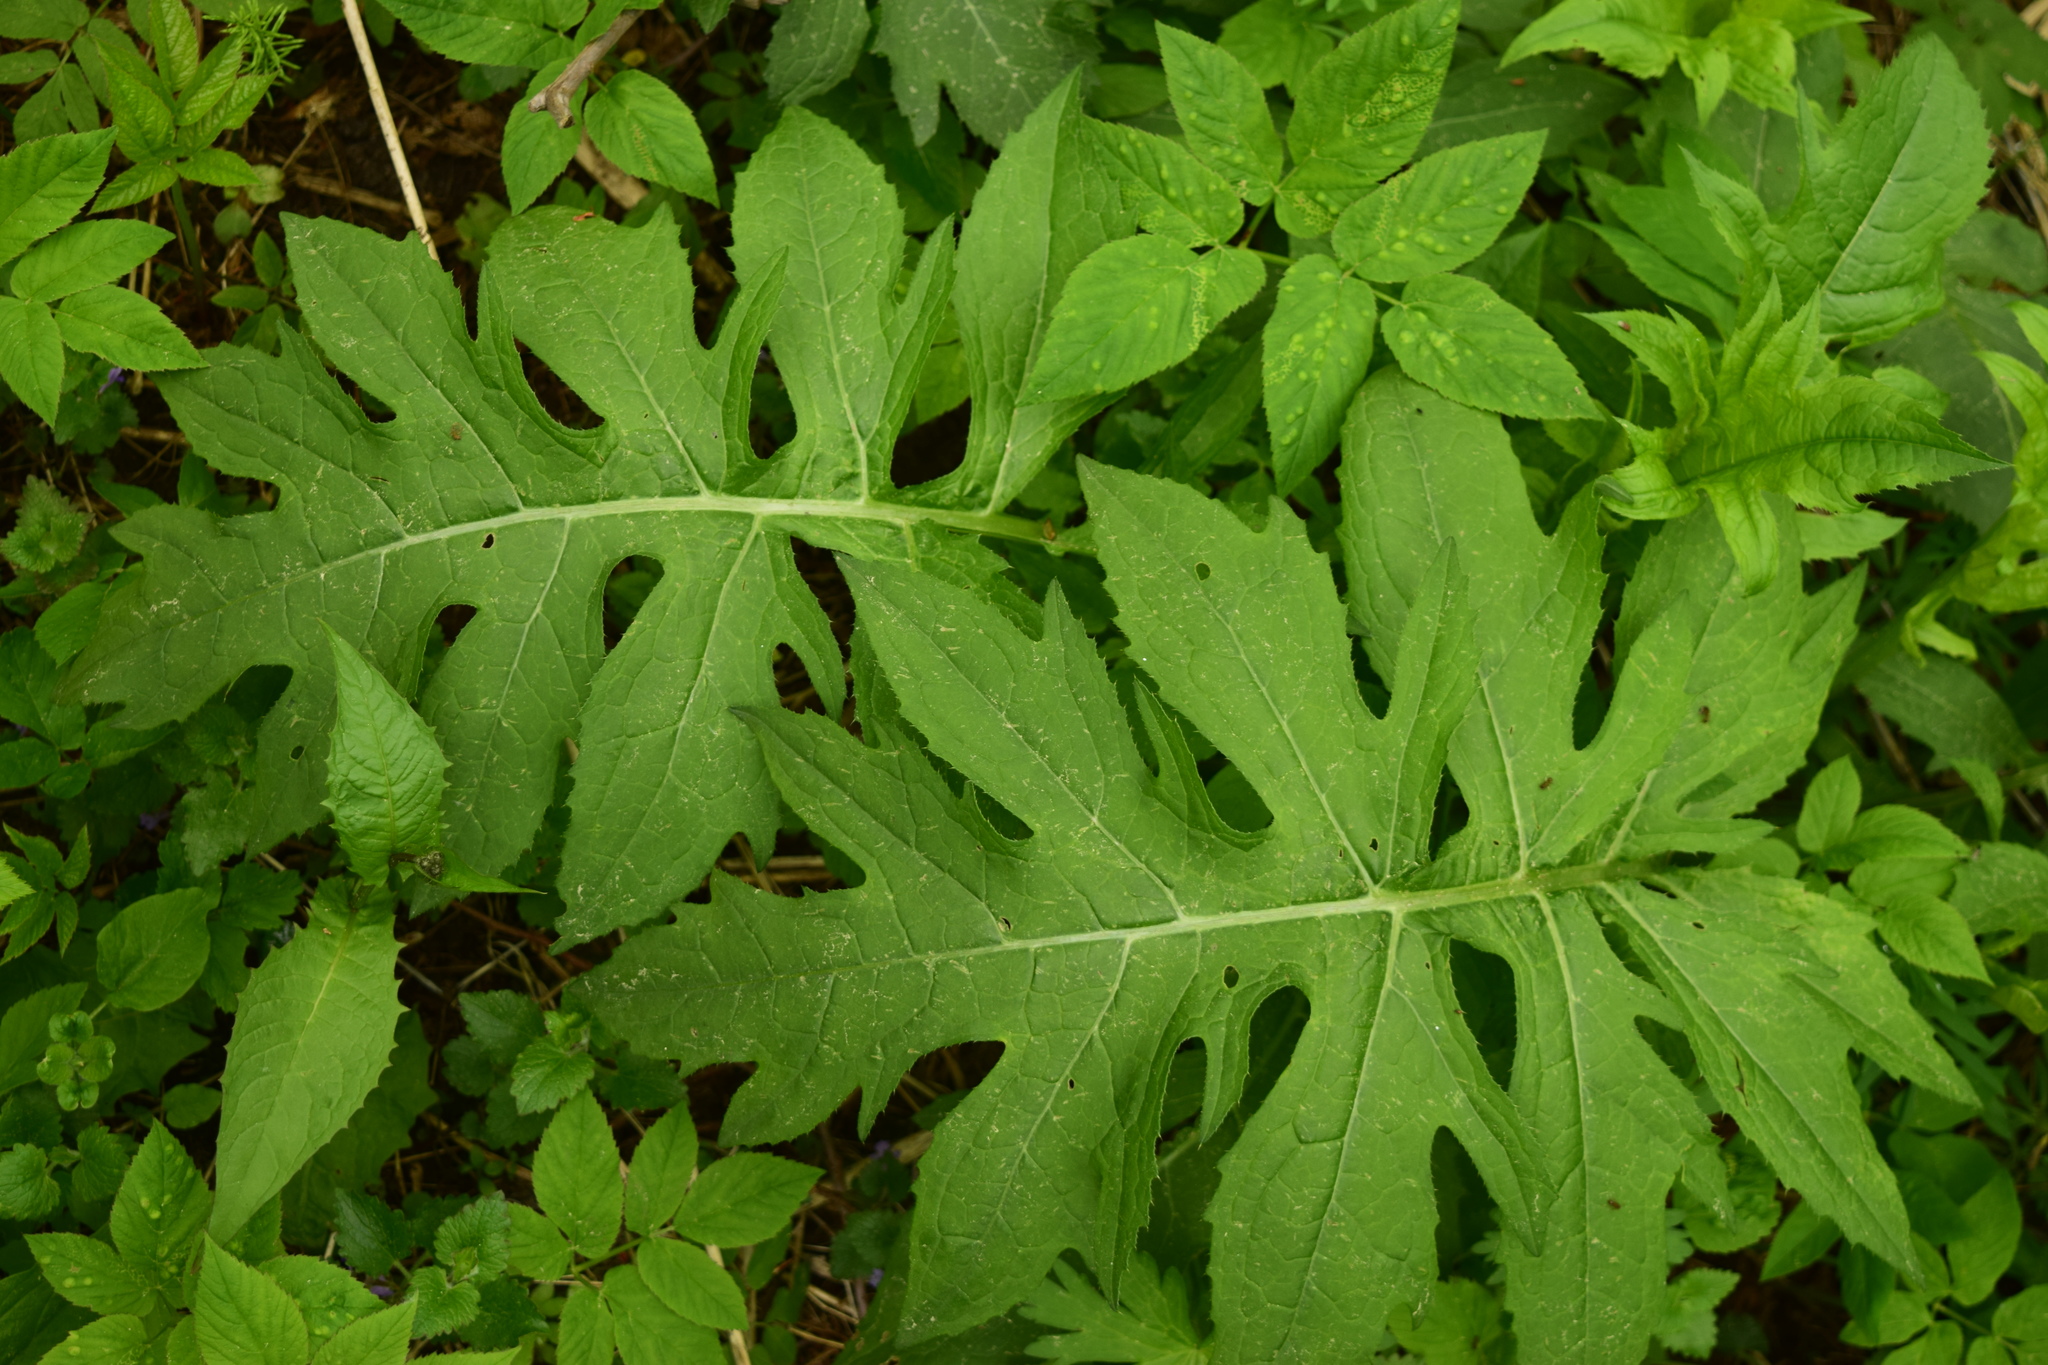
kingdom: Plantae
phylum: Tracheophyta
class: Magnoliopsida
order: Asterales
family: Asteraceae
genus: Cirsium
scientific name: Cirsium oleraceum
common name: Cabbage thistle
